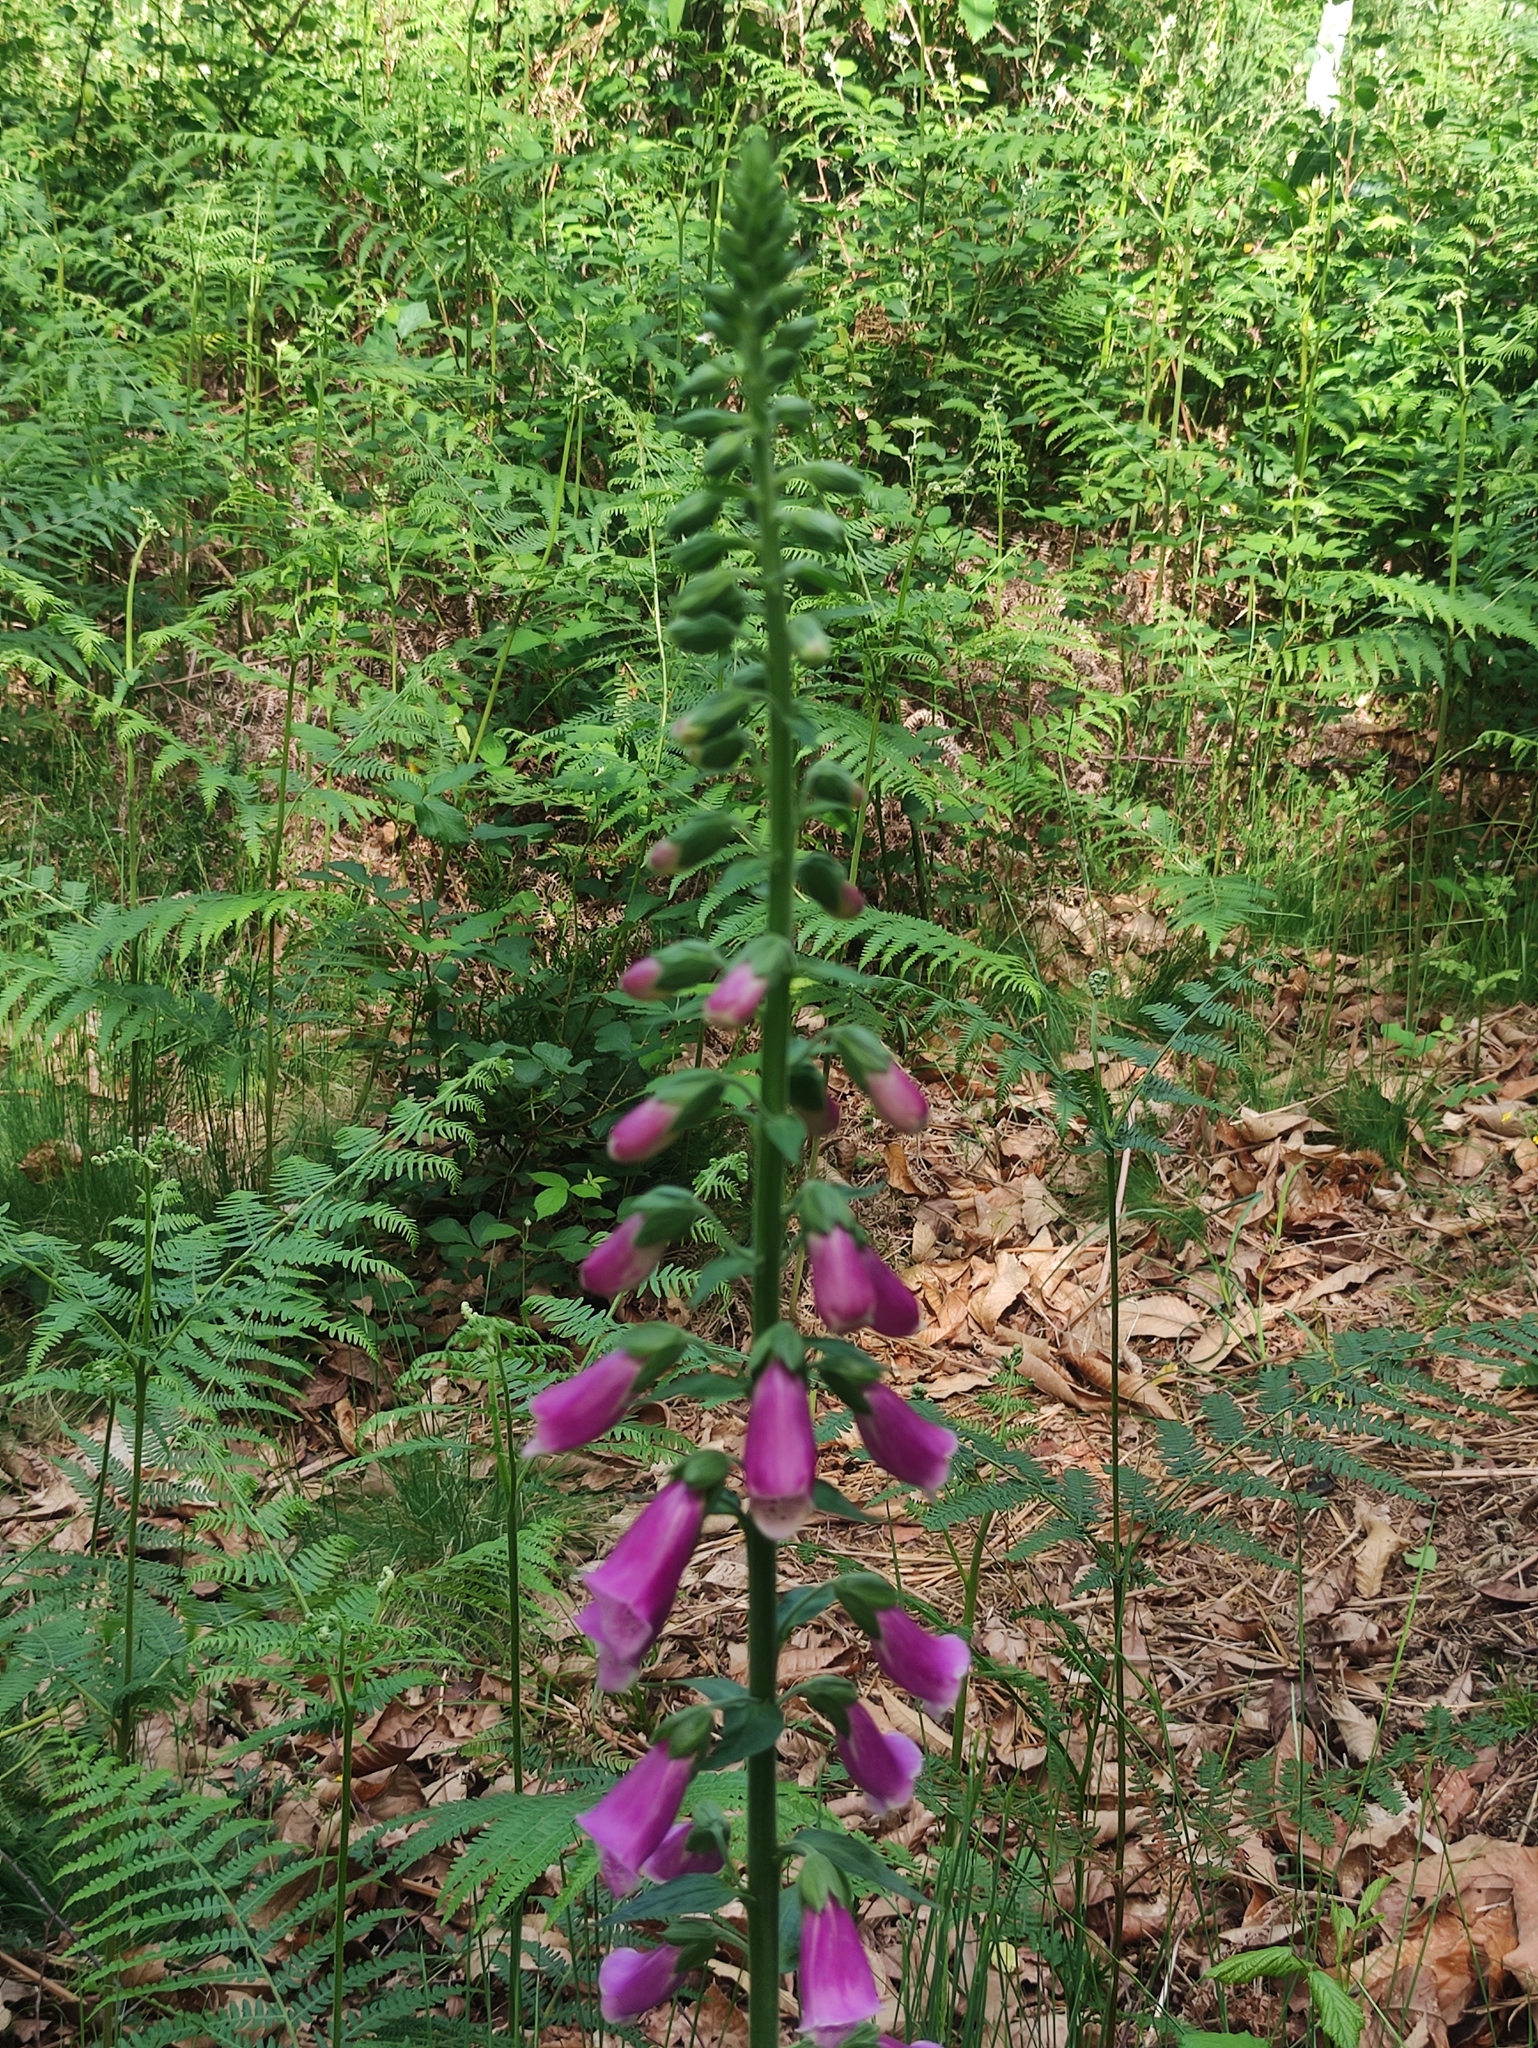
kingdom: Plantae
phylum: Tracheophyta
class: Magnoliopsida
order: Lamiales
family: Plantaginaceae
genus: Digitalis
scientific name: Digitalis purpurea
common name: Foxglove
